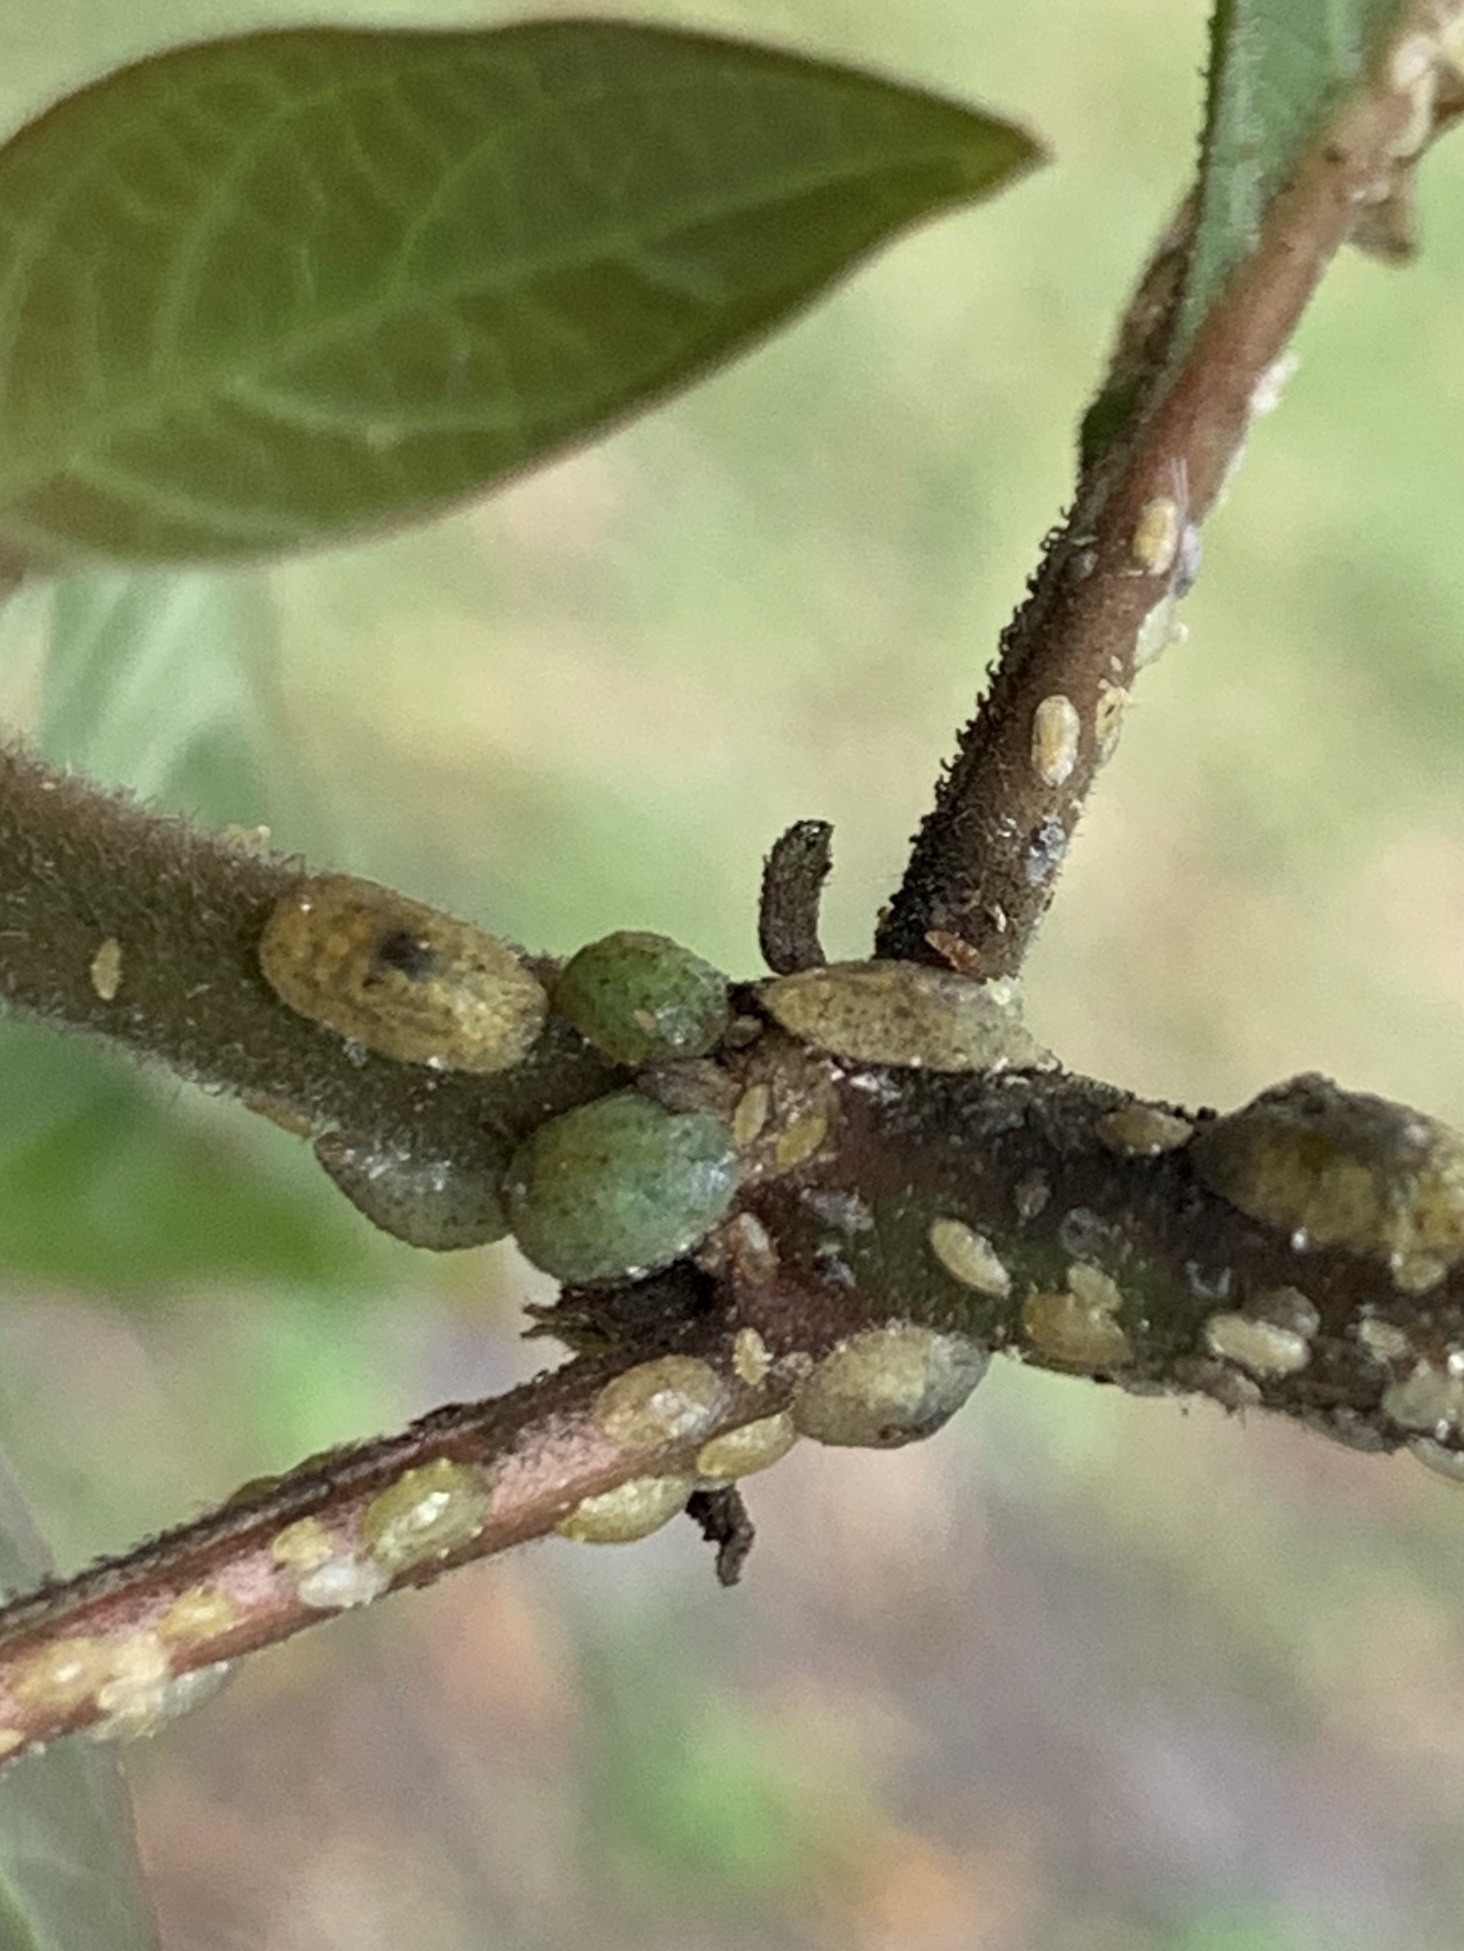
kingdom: Animalia
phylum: Arthropoda
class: Insecta
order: Hemiptera
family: Coccidae
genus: Phalacrococcus
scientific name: Phalacrococcus howertoni
